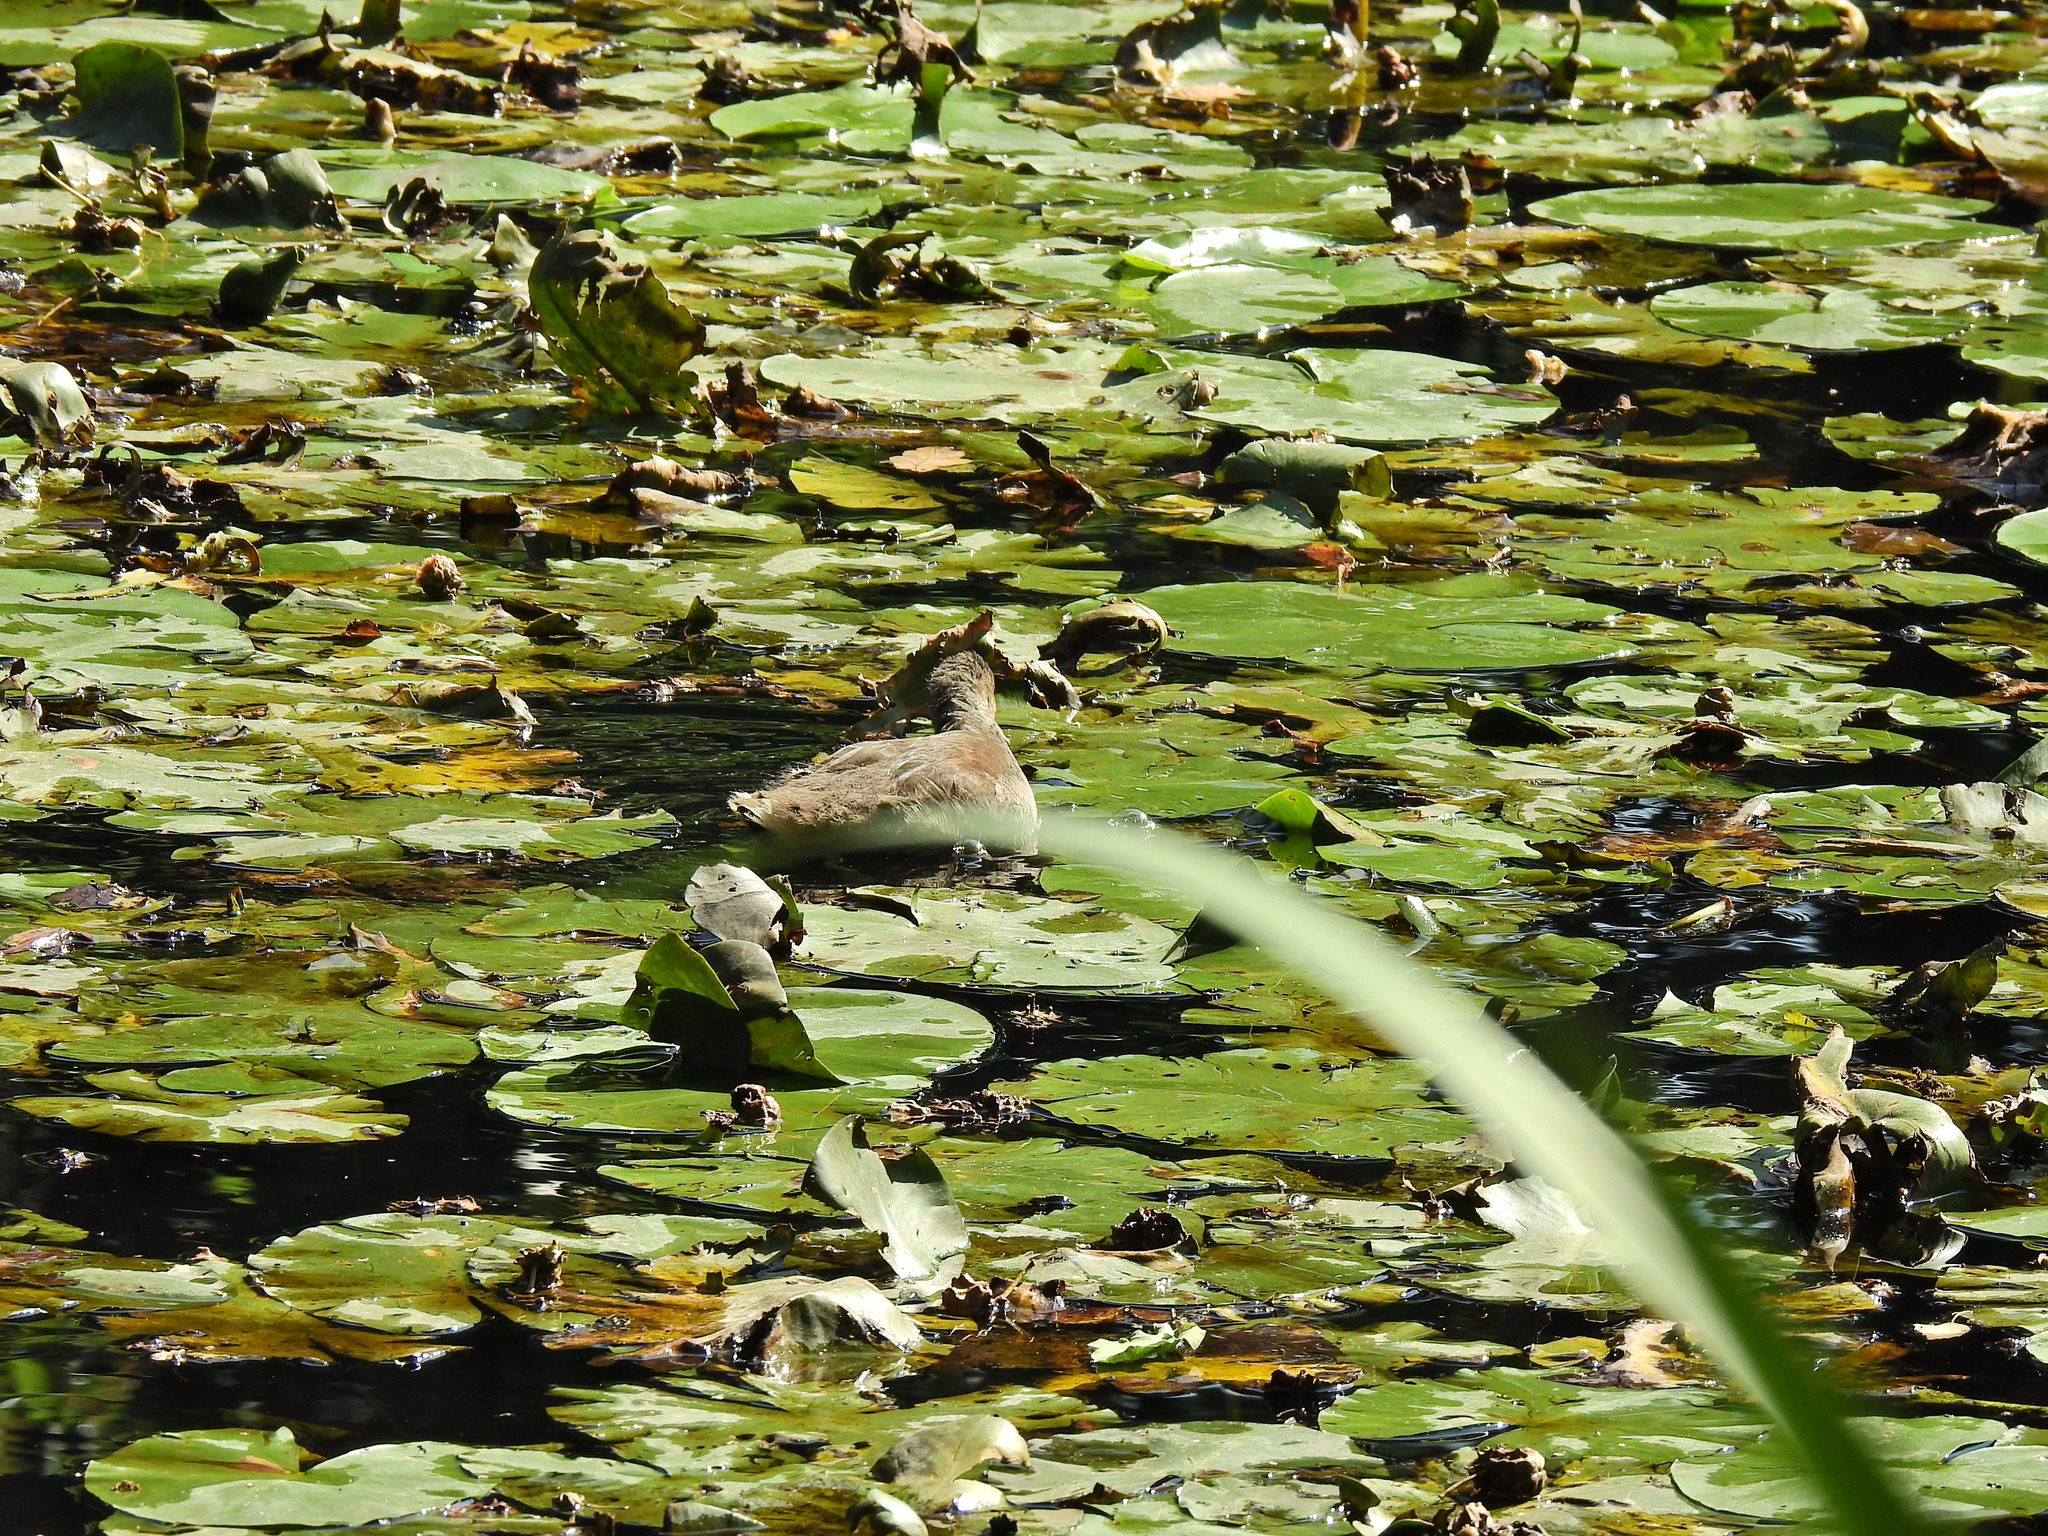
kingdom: Animalia
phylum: Chordata
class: Aves
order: Gruiformes
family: Rallidae
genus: Gallinula
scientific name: Gallinula chloropus
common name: Common moorhen
